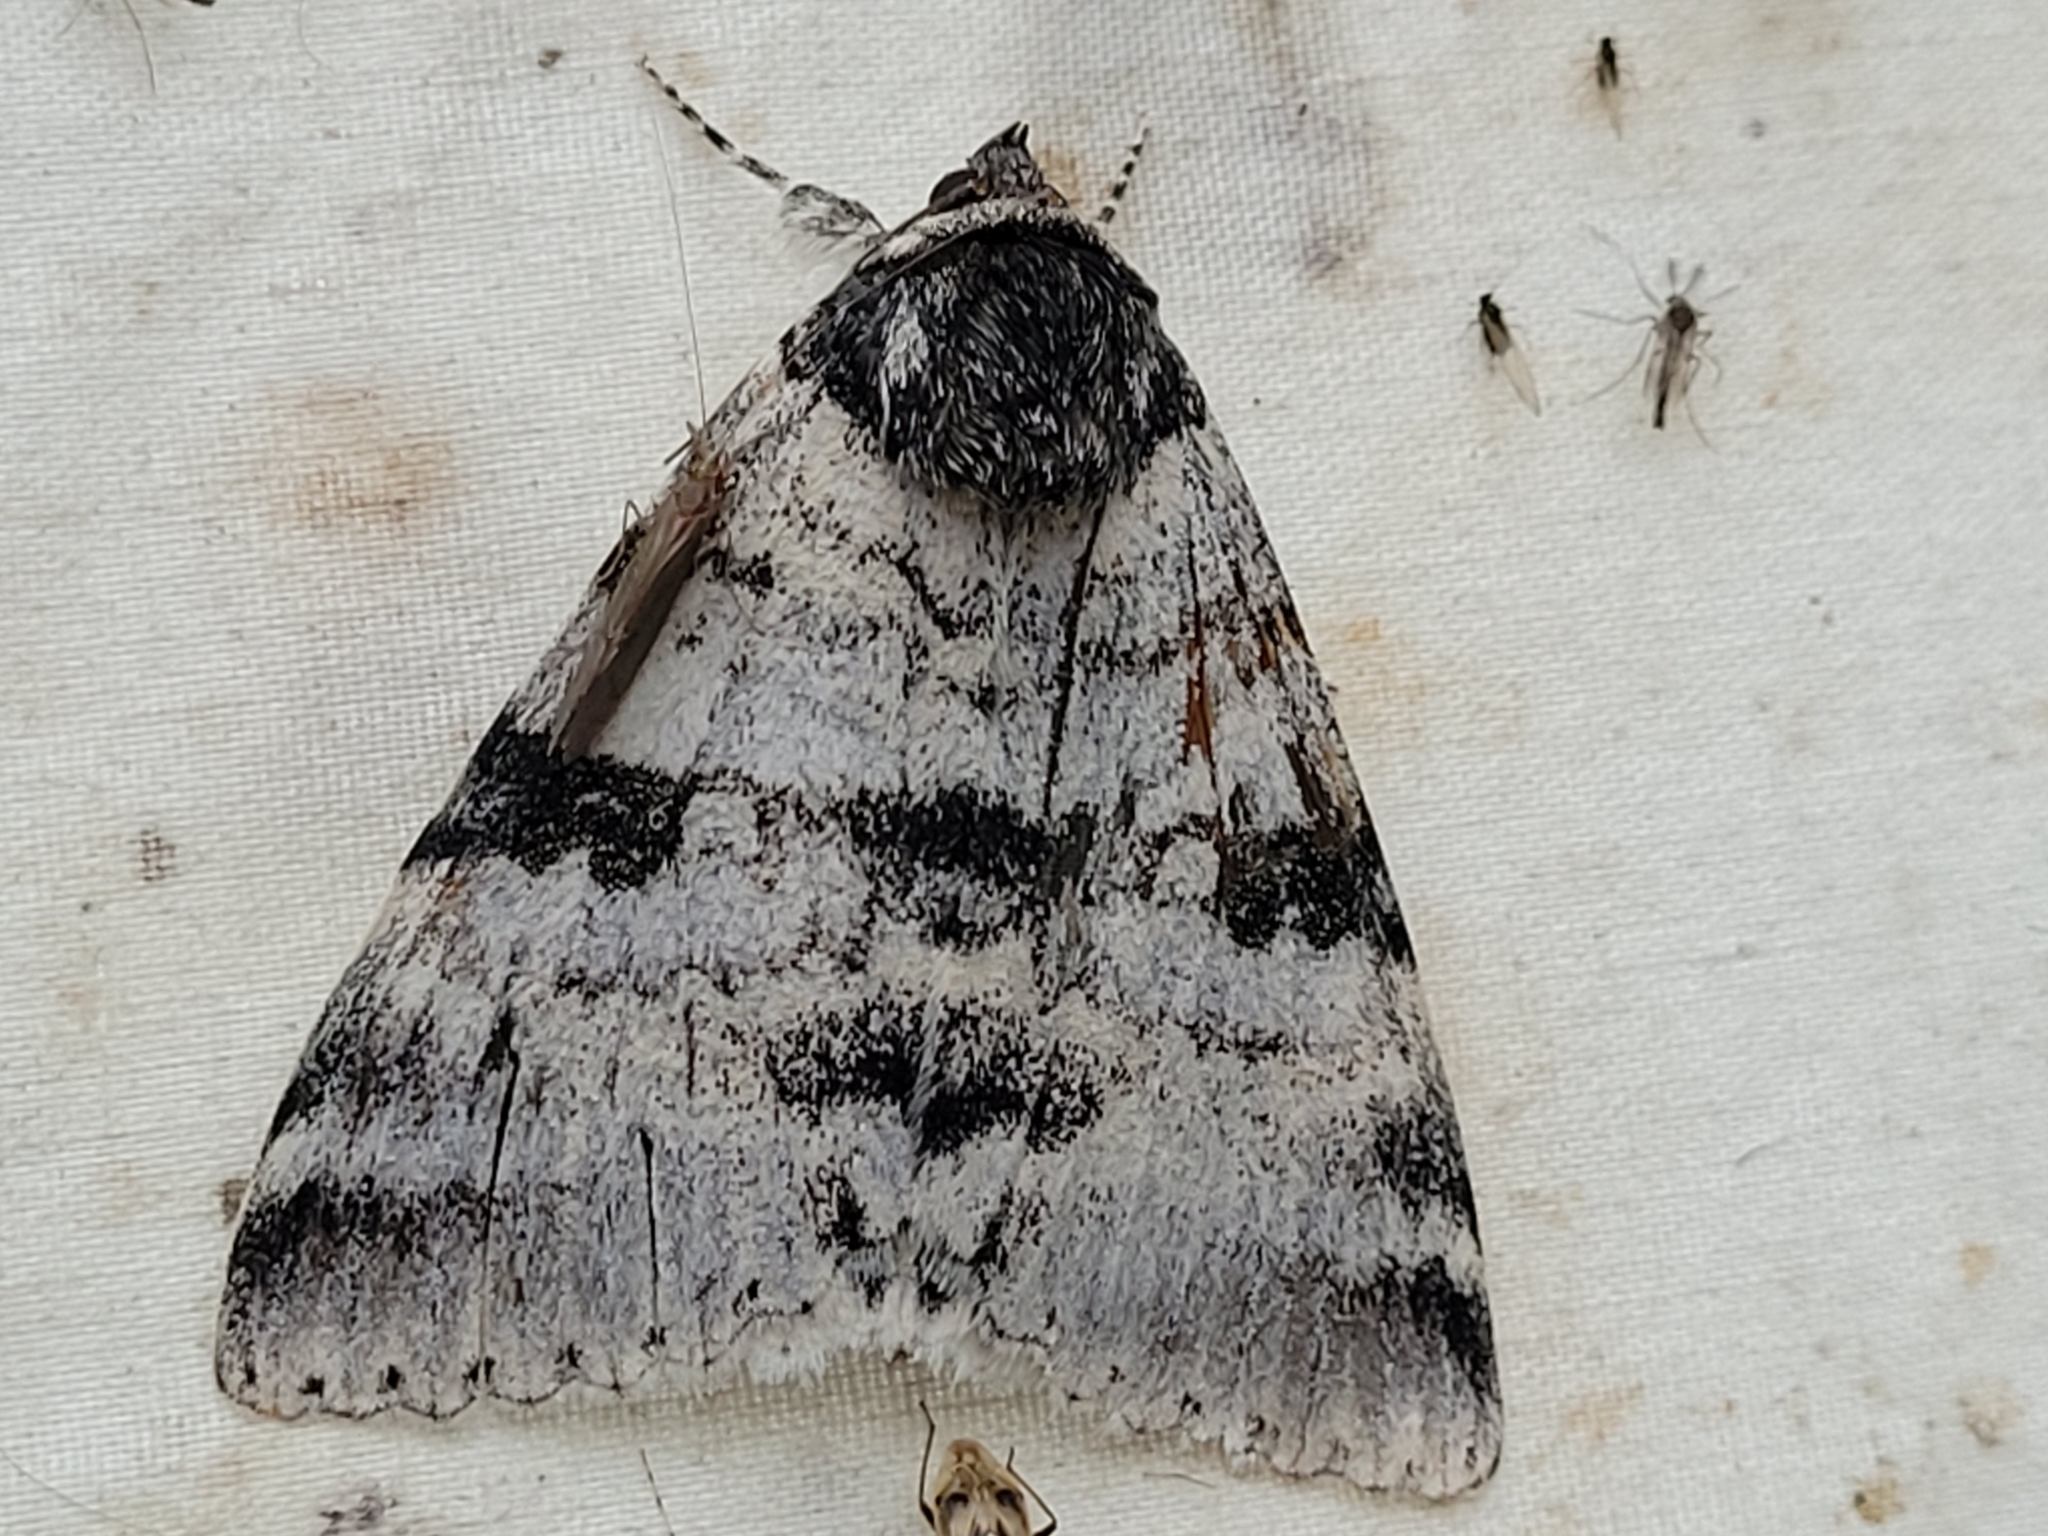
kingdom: Animalia
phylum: Arthropoda
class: Insecta
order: Lepidoptera
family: Erebidae
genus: Catocala
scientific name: Catocala relicta
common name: White underwing
